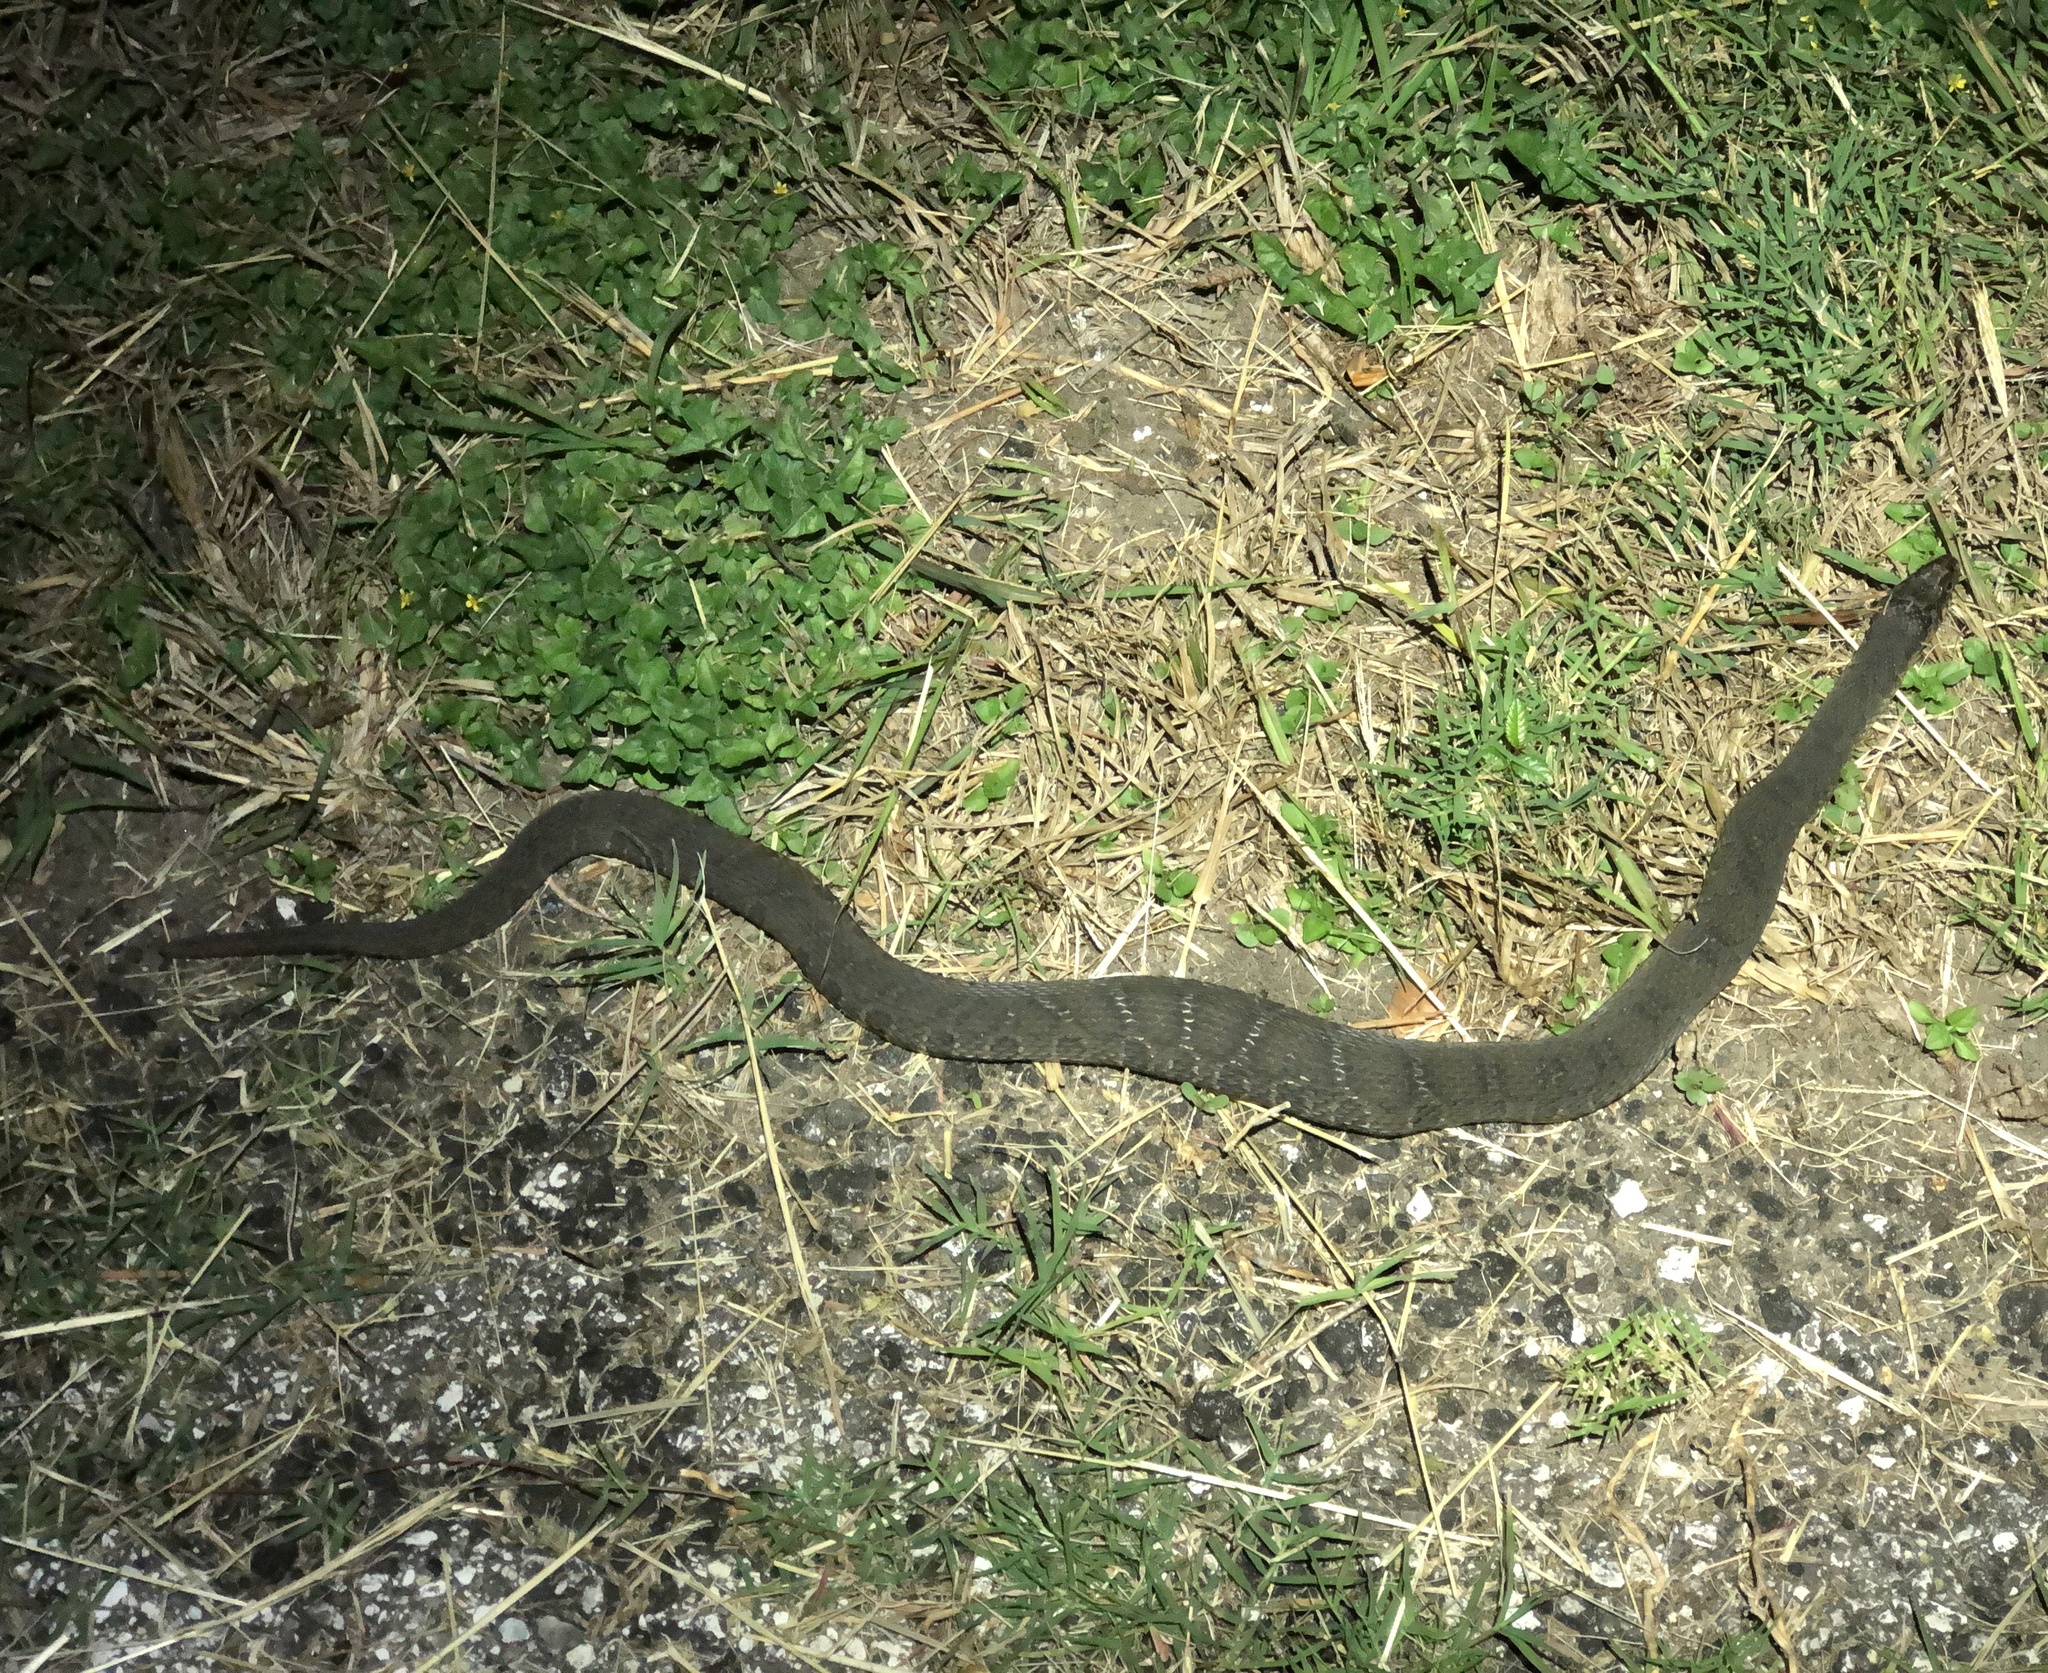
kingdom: Animalia
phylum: Chordata
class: Squamata
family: Colubridae
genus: Nerodia
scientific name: Nerodia erythrogaster
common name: Plainbelly water snake
